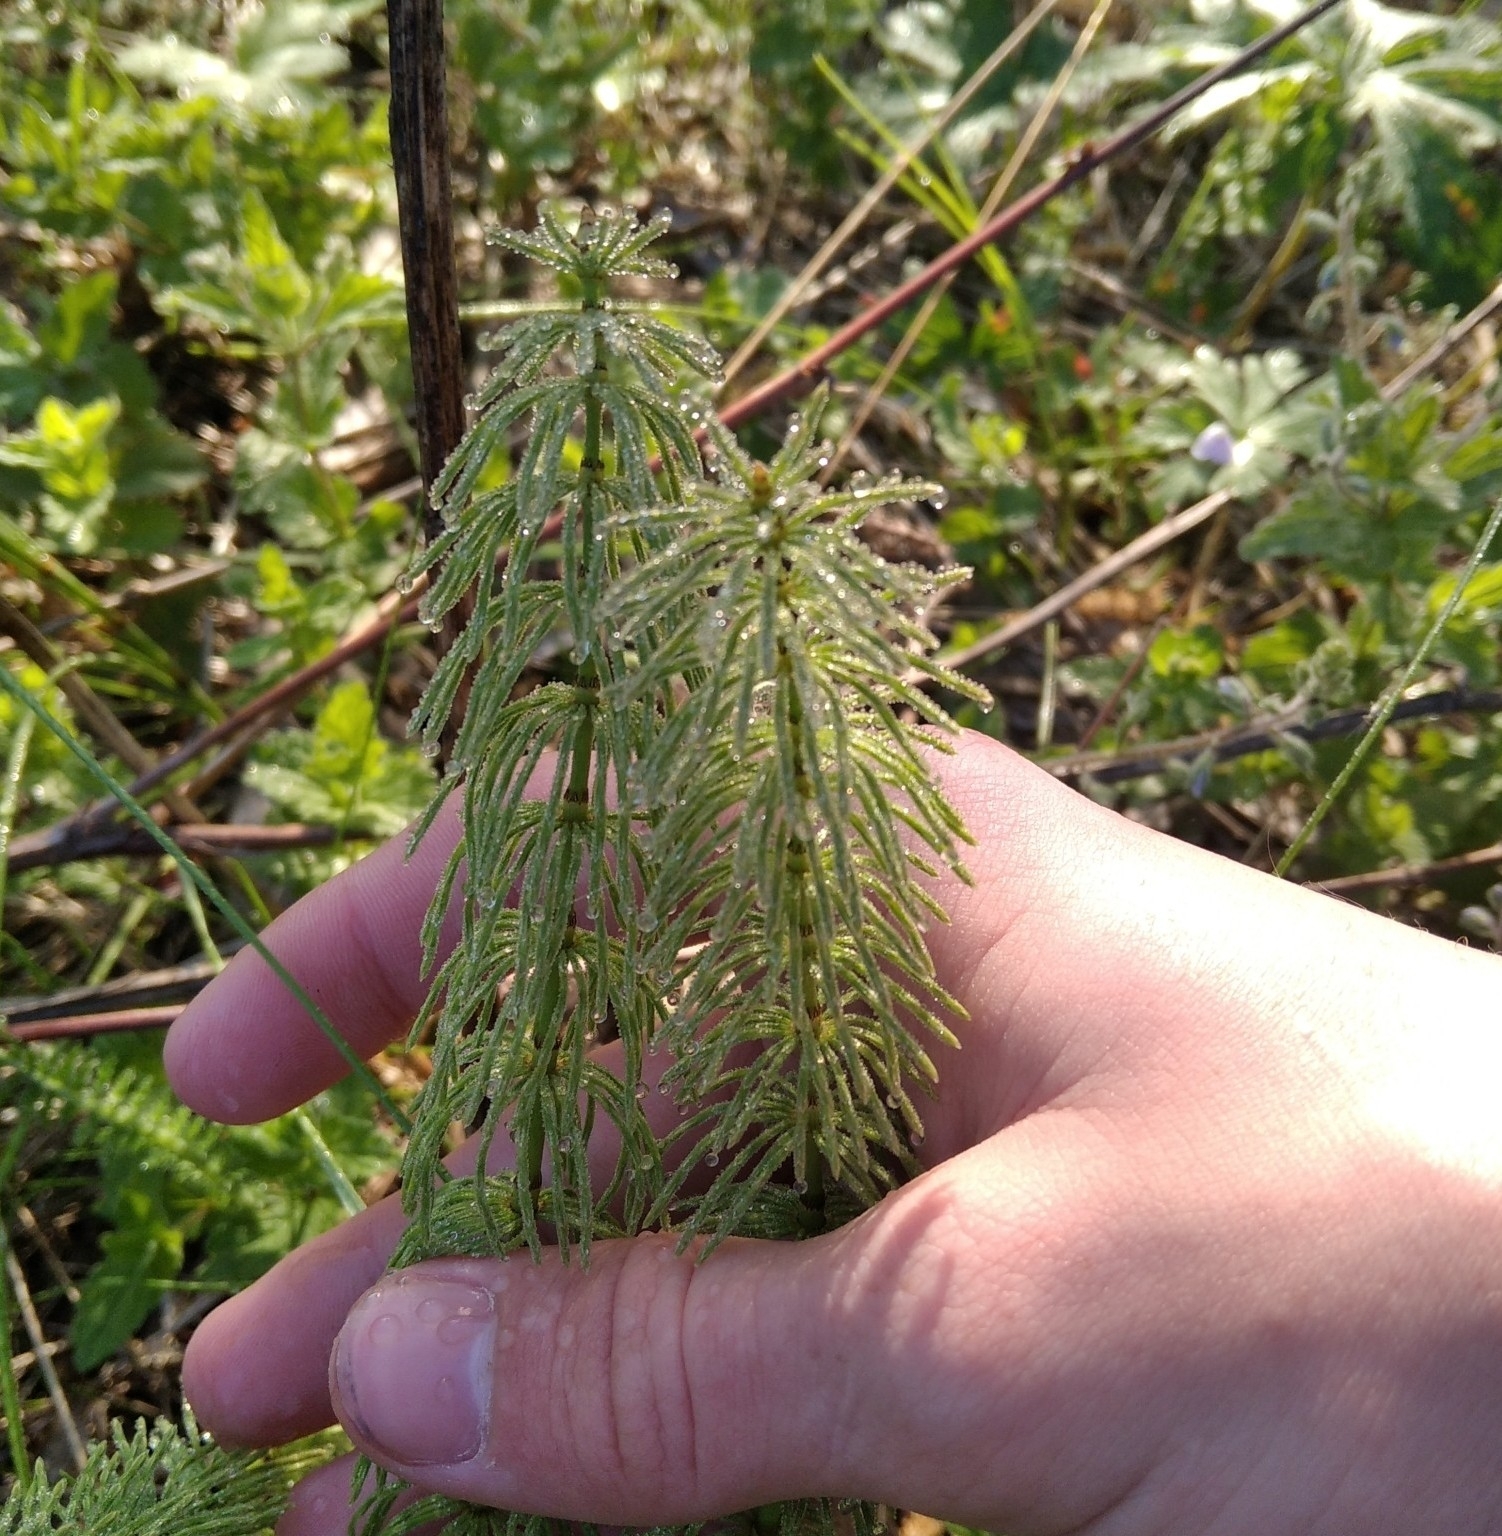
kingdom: Plantae
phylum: Tracheophyta
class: Polypodiopsida
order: Equisetales
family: Equisetaceae
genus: Equisetum
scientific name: Equisetum pratense
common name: Meadow horsetail
